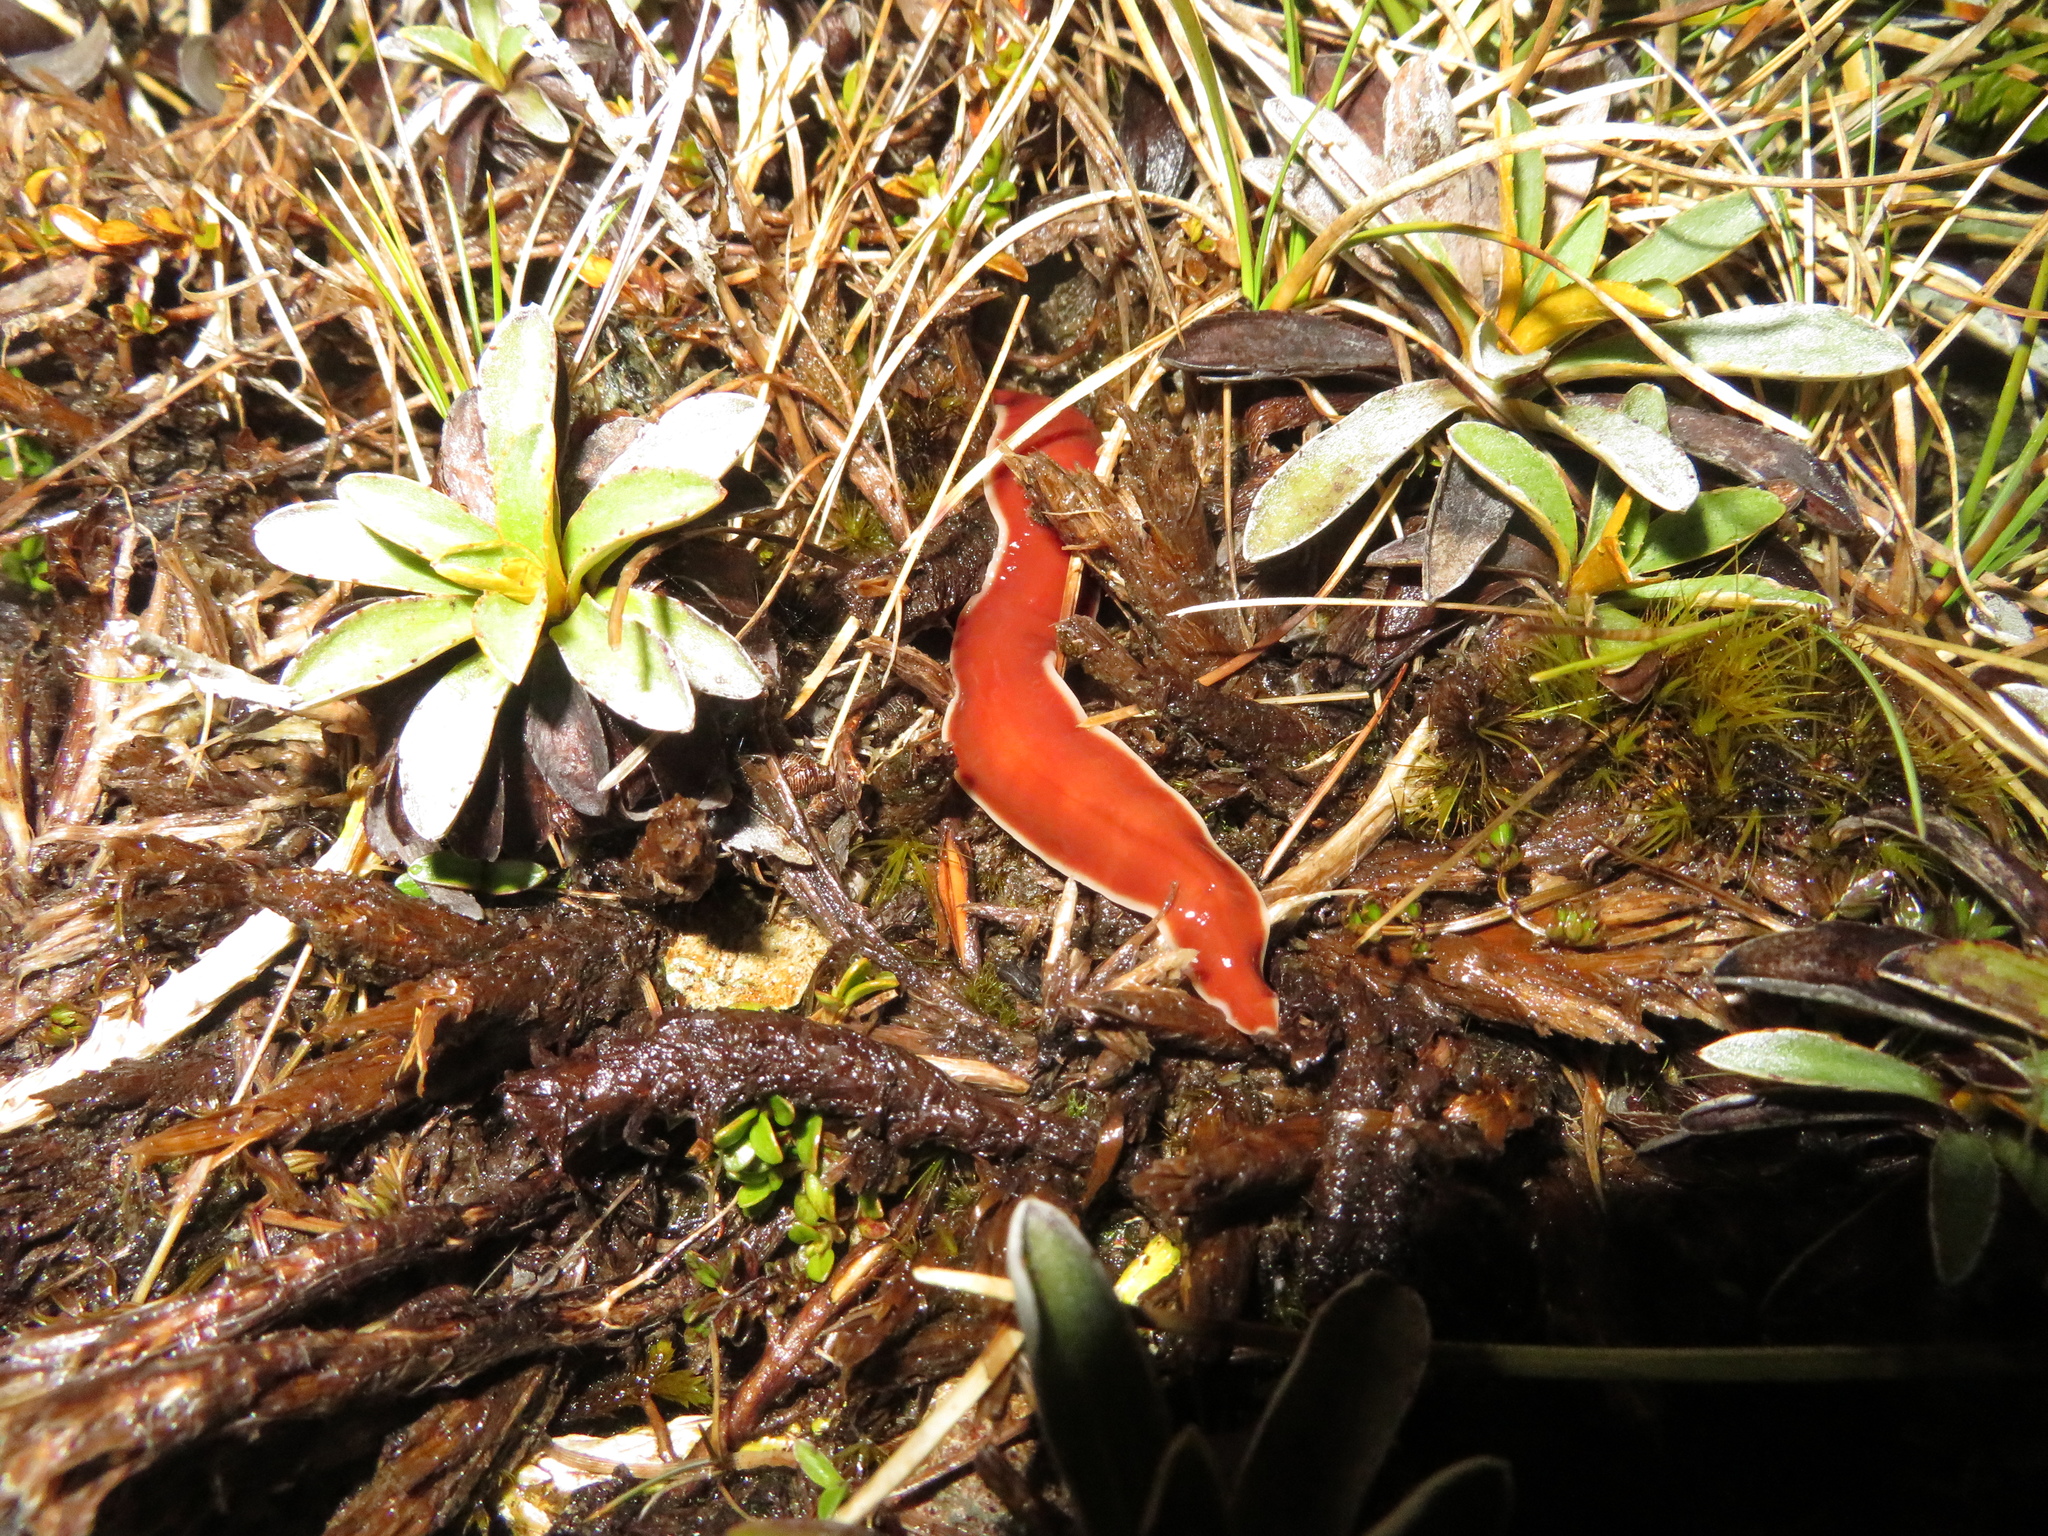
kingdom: Animalia
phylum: Platyhelminthes
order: Tricladida
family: Geoplanidae
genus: Arthurdendyus
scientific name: Arthurdendyus testaceus
